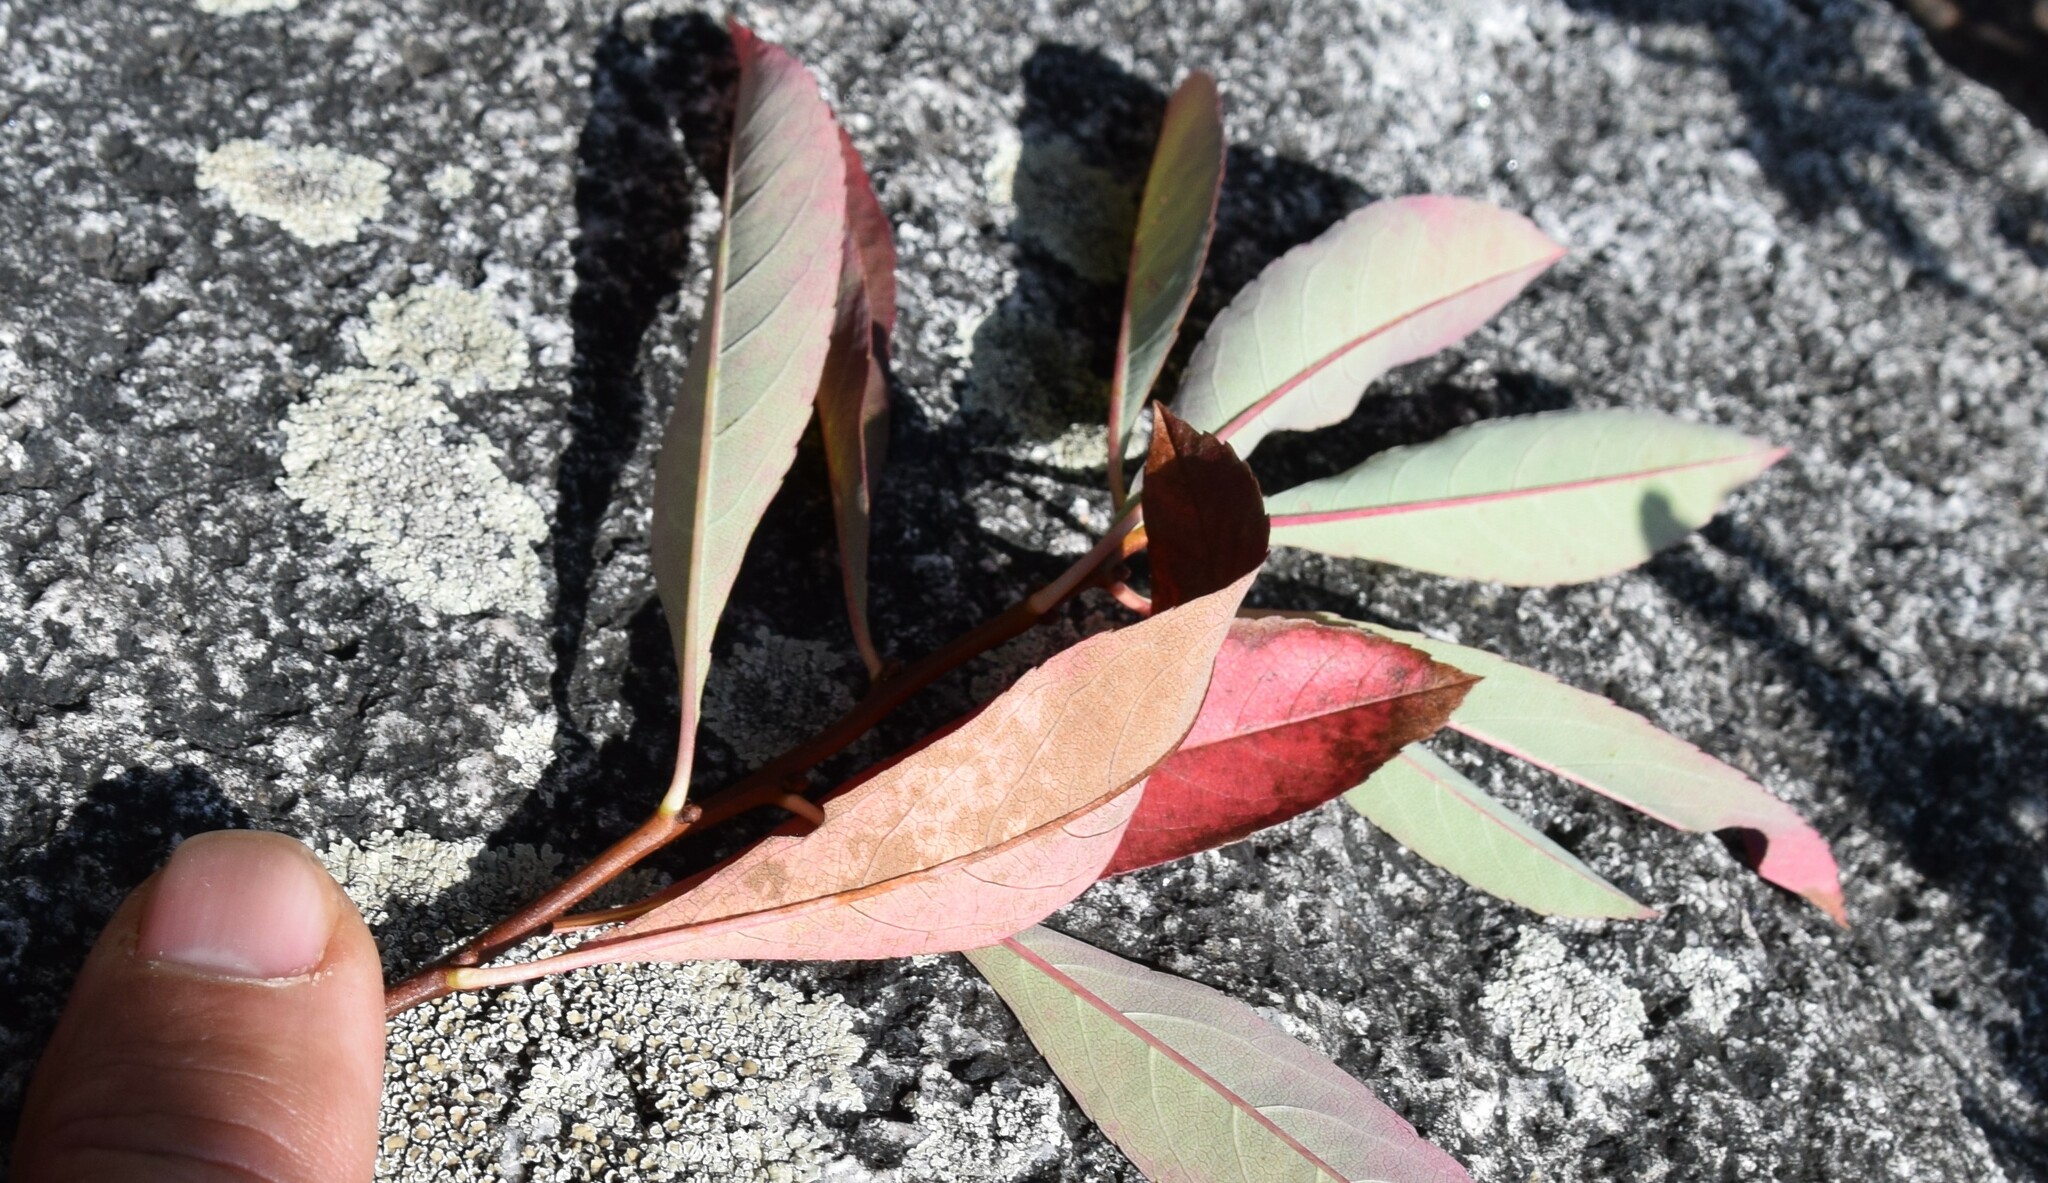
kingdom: Plantae
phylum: Tracheophyta
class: Magnoliopsida
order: Rosales
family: Rosaceae
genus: Prunus
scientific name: Prunus pumila
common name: Dwarf cherry
